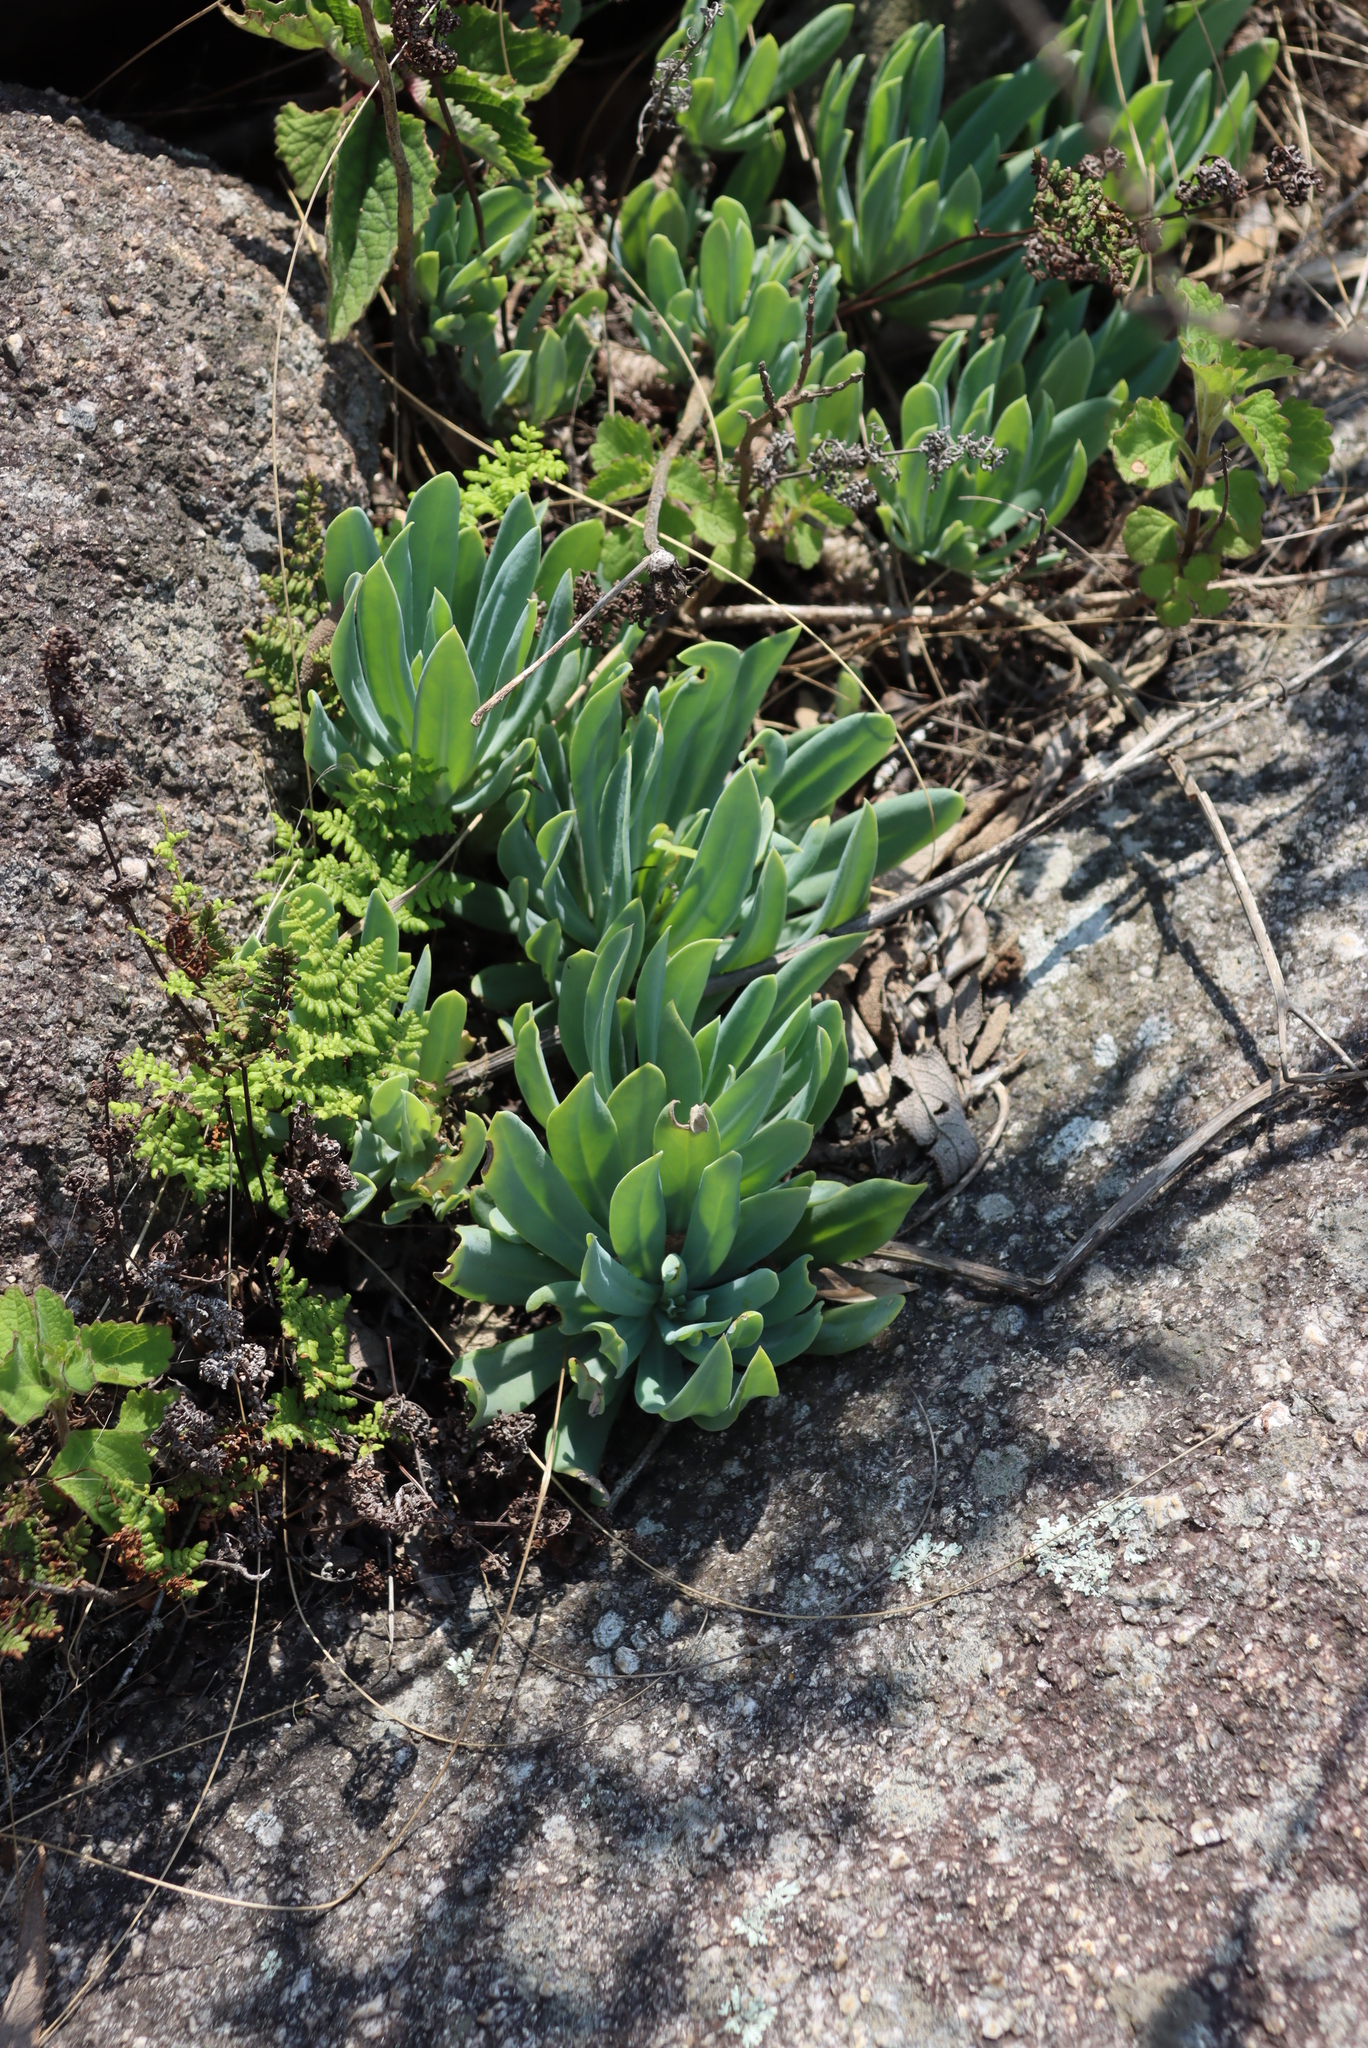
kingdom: Plantae
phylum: Tracheophyta
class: Magnoliopsida
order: Asterales
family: Asteraceae
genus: Kleinia
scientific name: Kleinia galpinii
